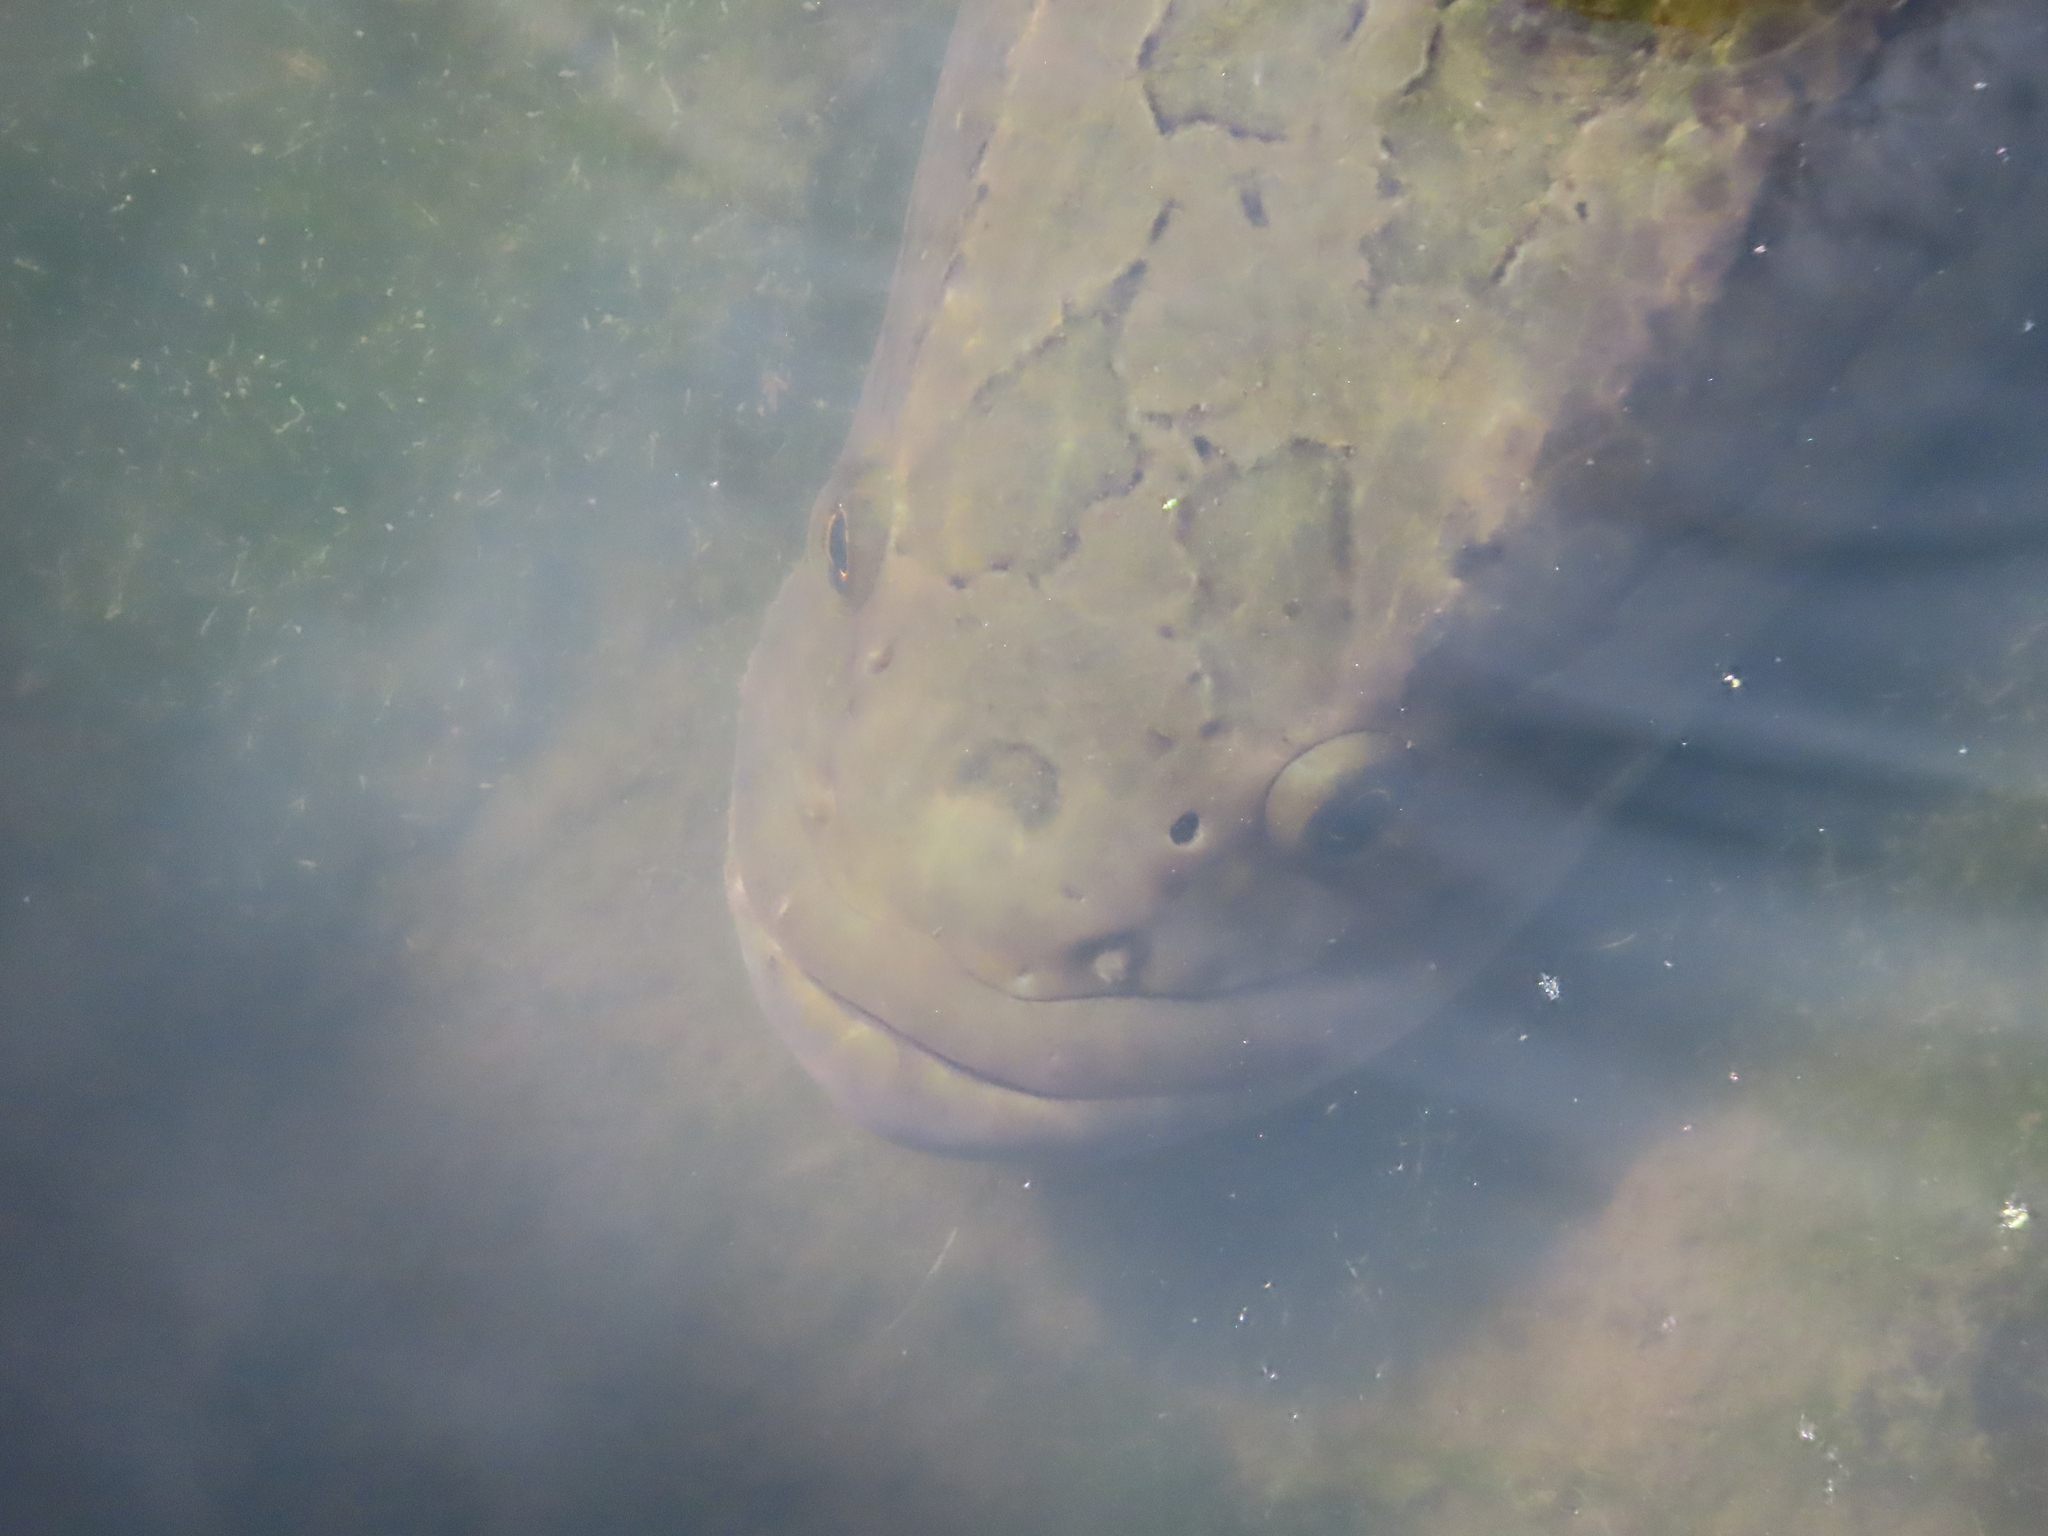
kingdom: Animalia
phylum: Chordata
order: Perciformes
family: Channidae
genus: Channa
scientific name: Channa argus
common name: Northern snakehead
